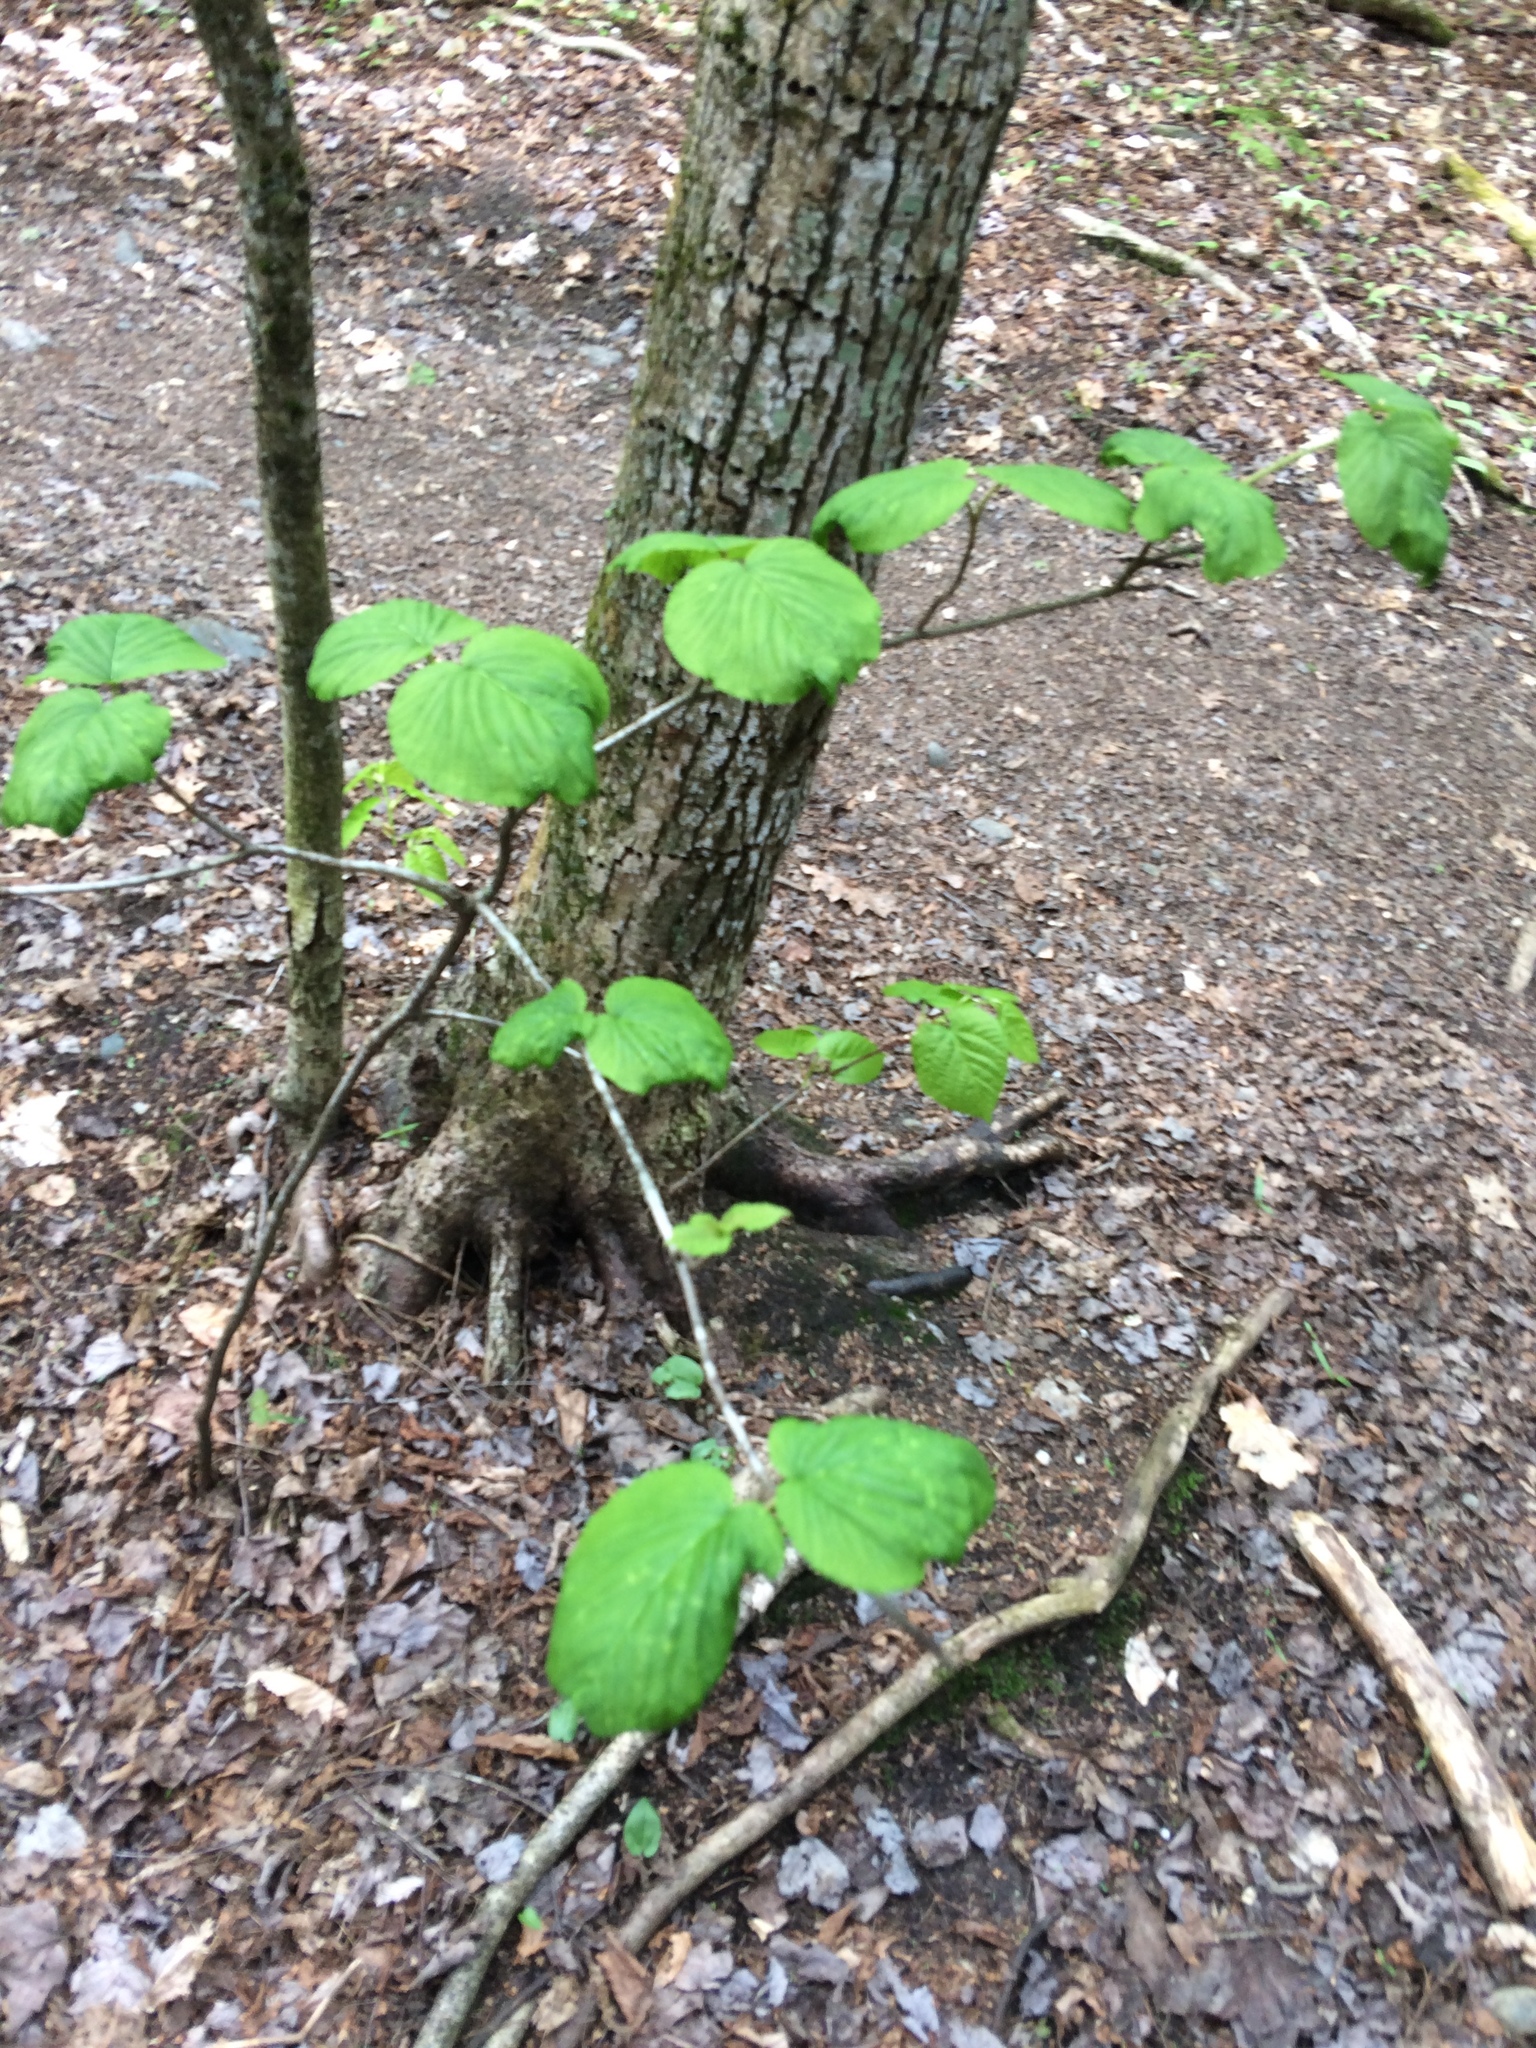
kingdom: Plantae
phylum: Tracheophyta
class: Magnoliopsida
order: Dipsacales
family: Viburnaceae
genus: Viburnum
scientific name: Viburnum lantanoides
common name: Hobblebush
